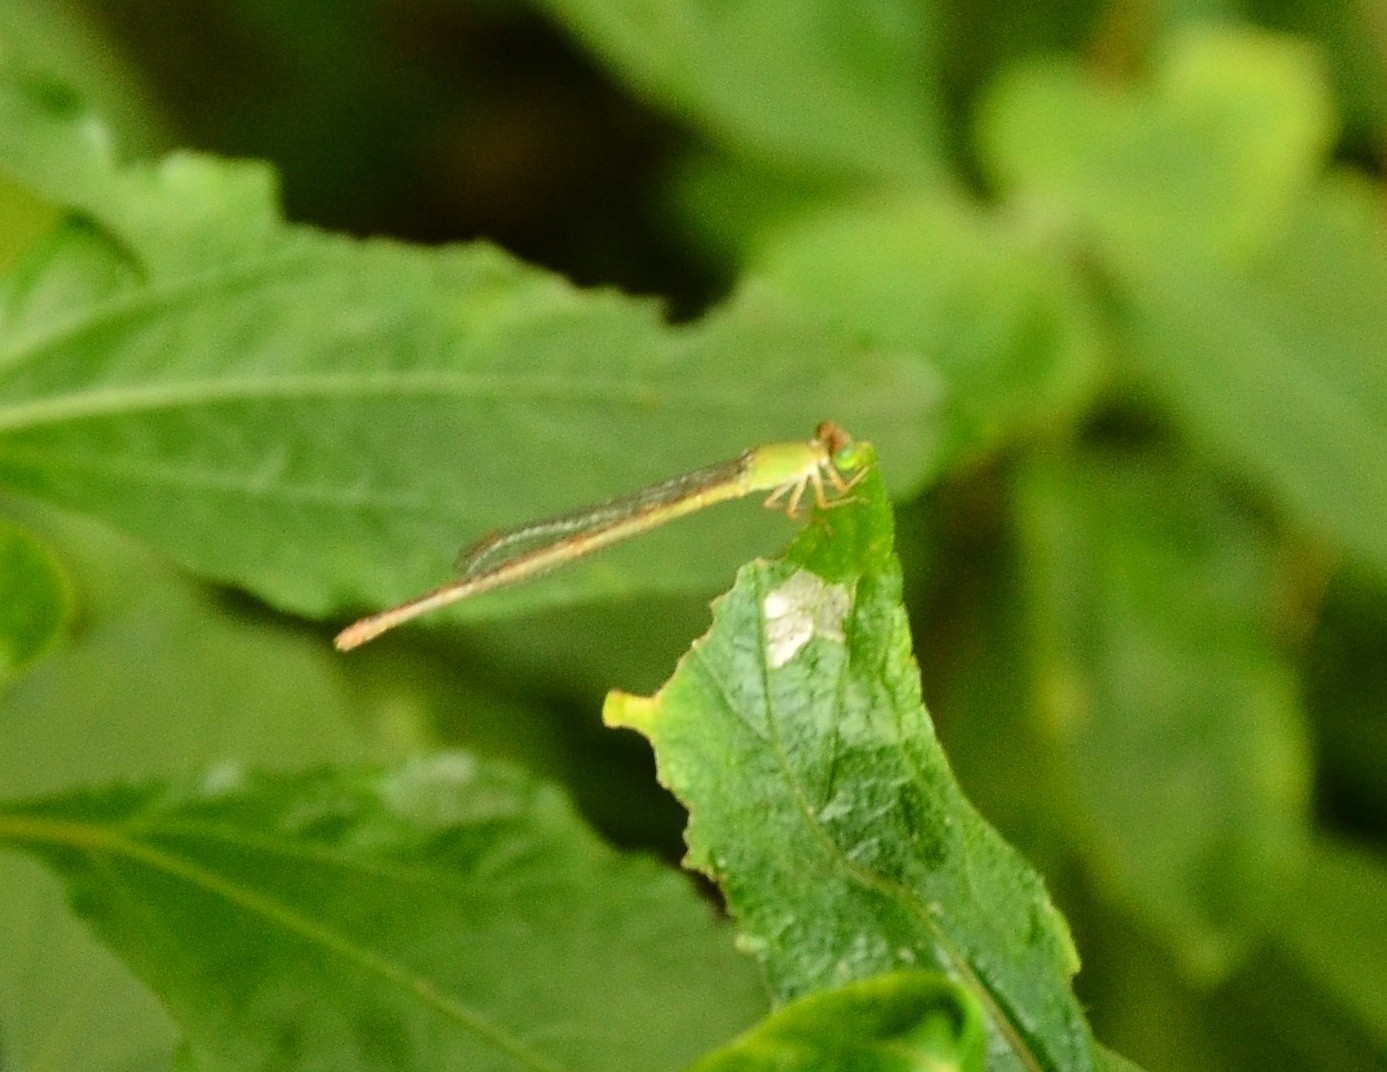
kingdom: Animalia
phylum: Arthropoda
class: Insecta
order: Odonata
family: Coenagrionidae
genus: Ceriagrion
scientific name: Ceriagrion coromandelianum
